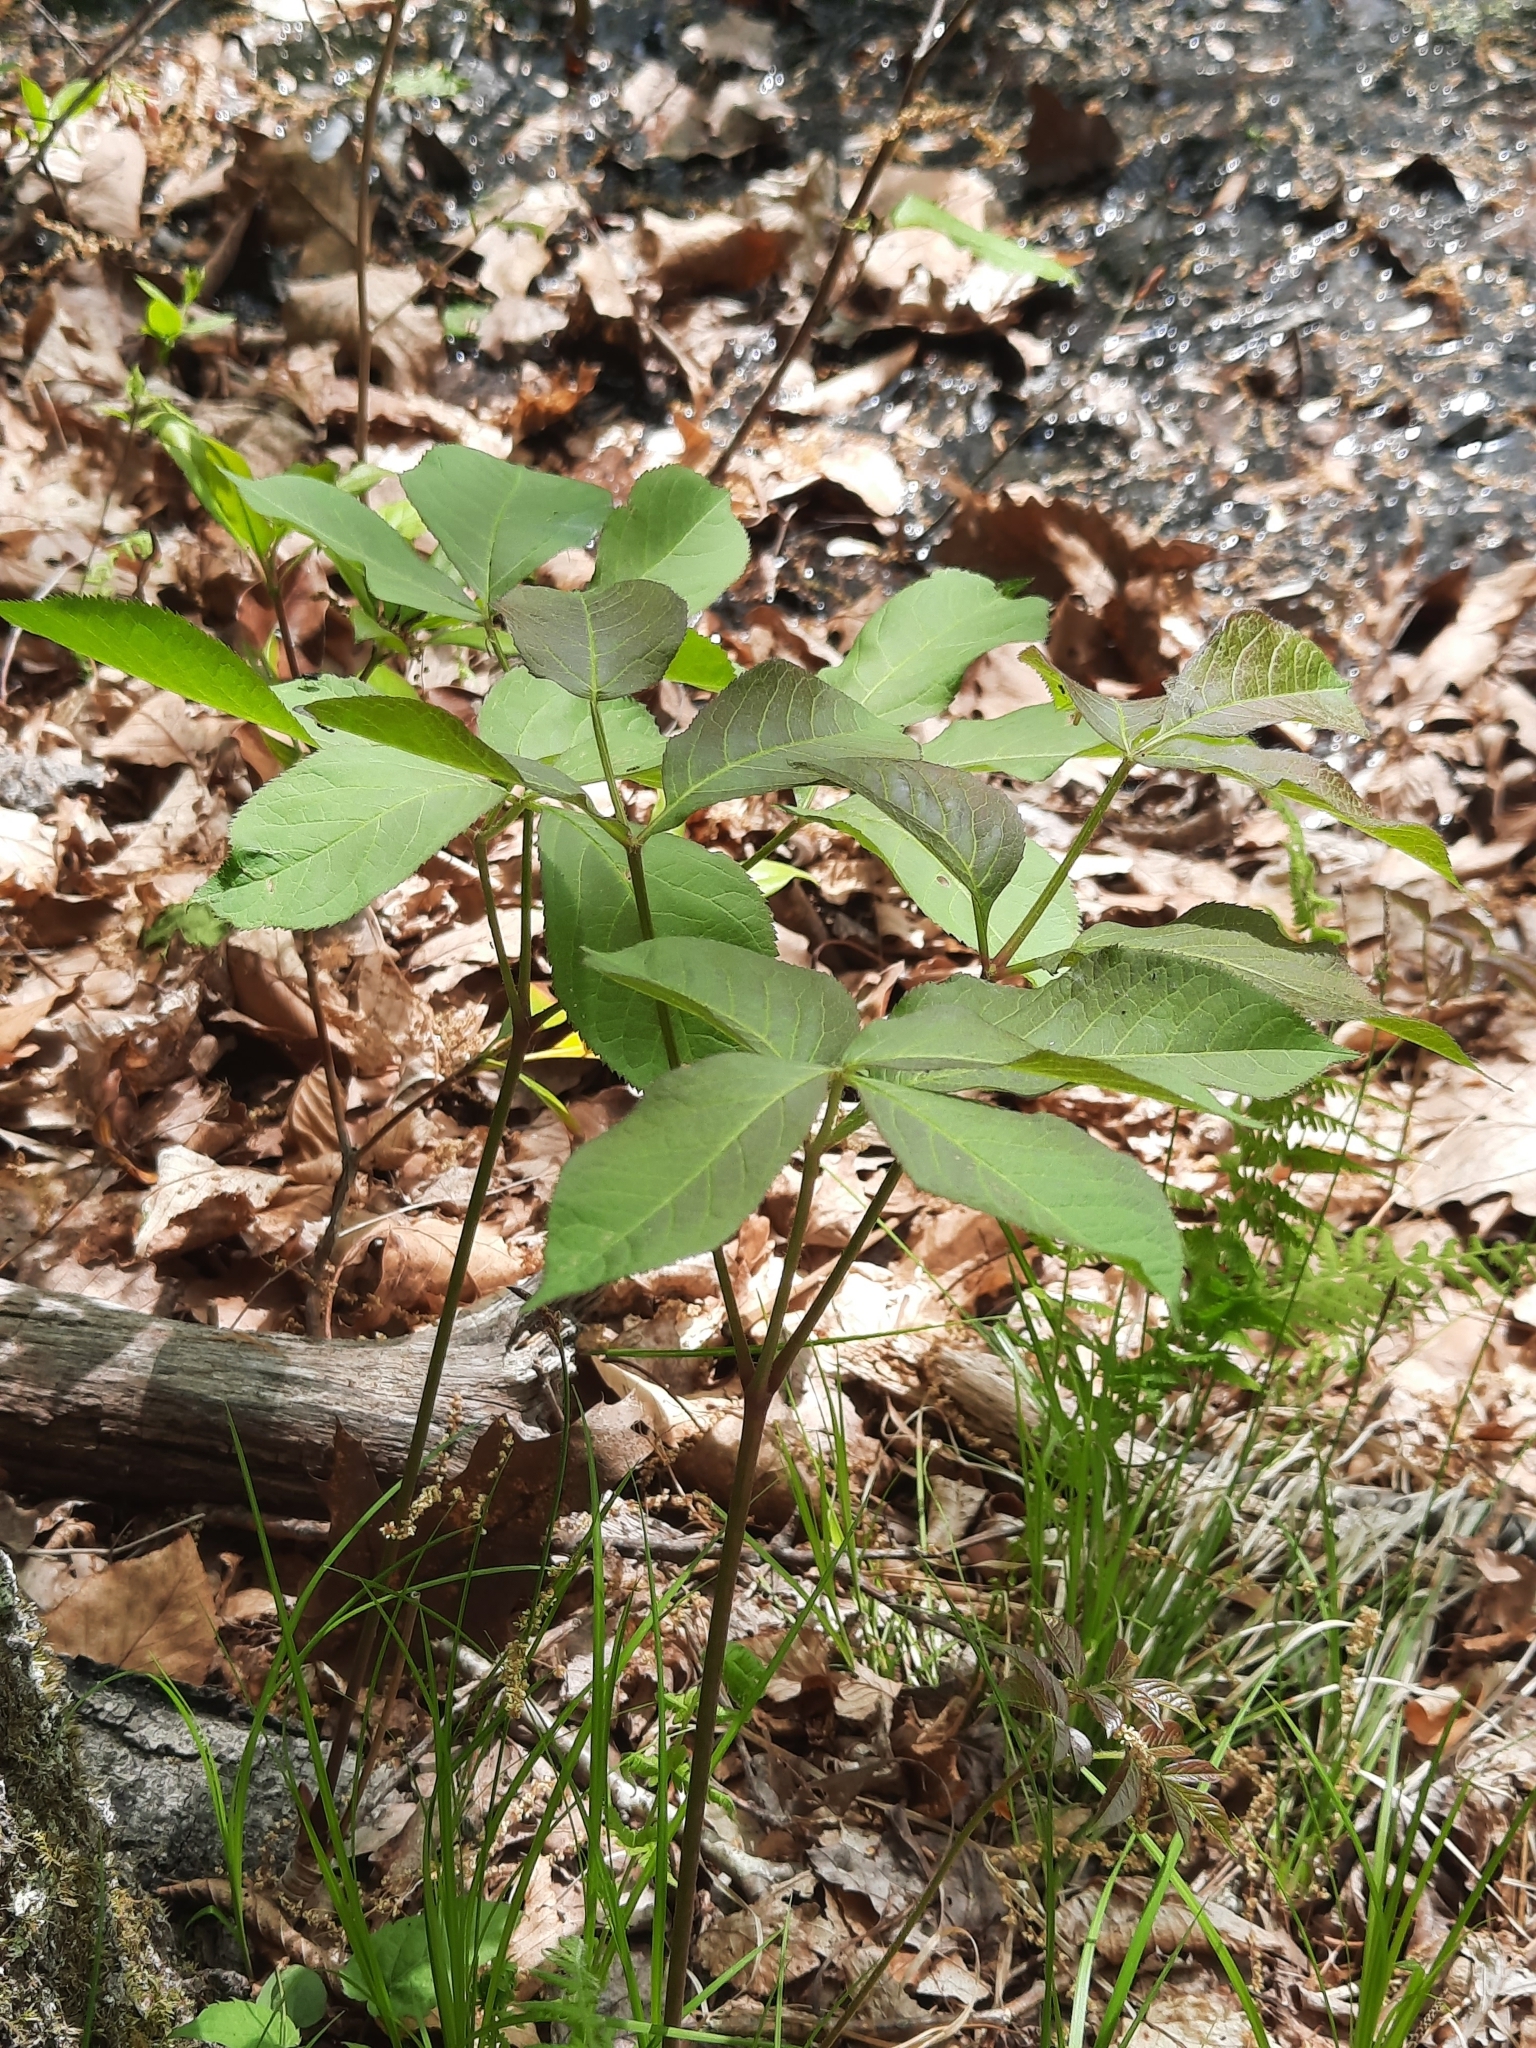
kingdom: Plantae
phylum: Tracheophyta
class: Magnoliopsida
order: Apiales
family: Araliaceae
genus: Aralia
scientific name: Aralia nudicaulis
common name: Wild sarsaparilla
